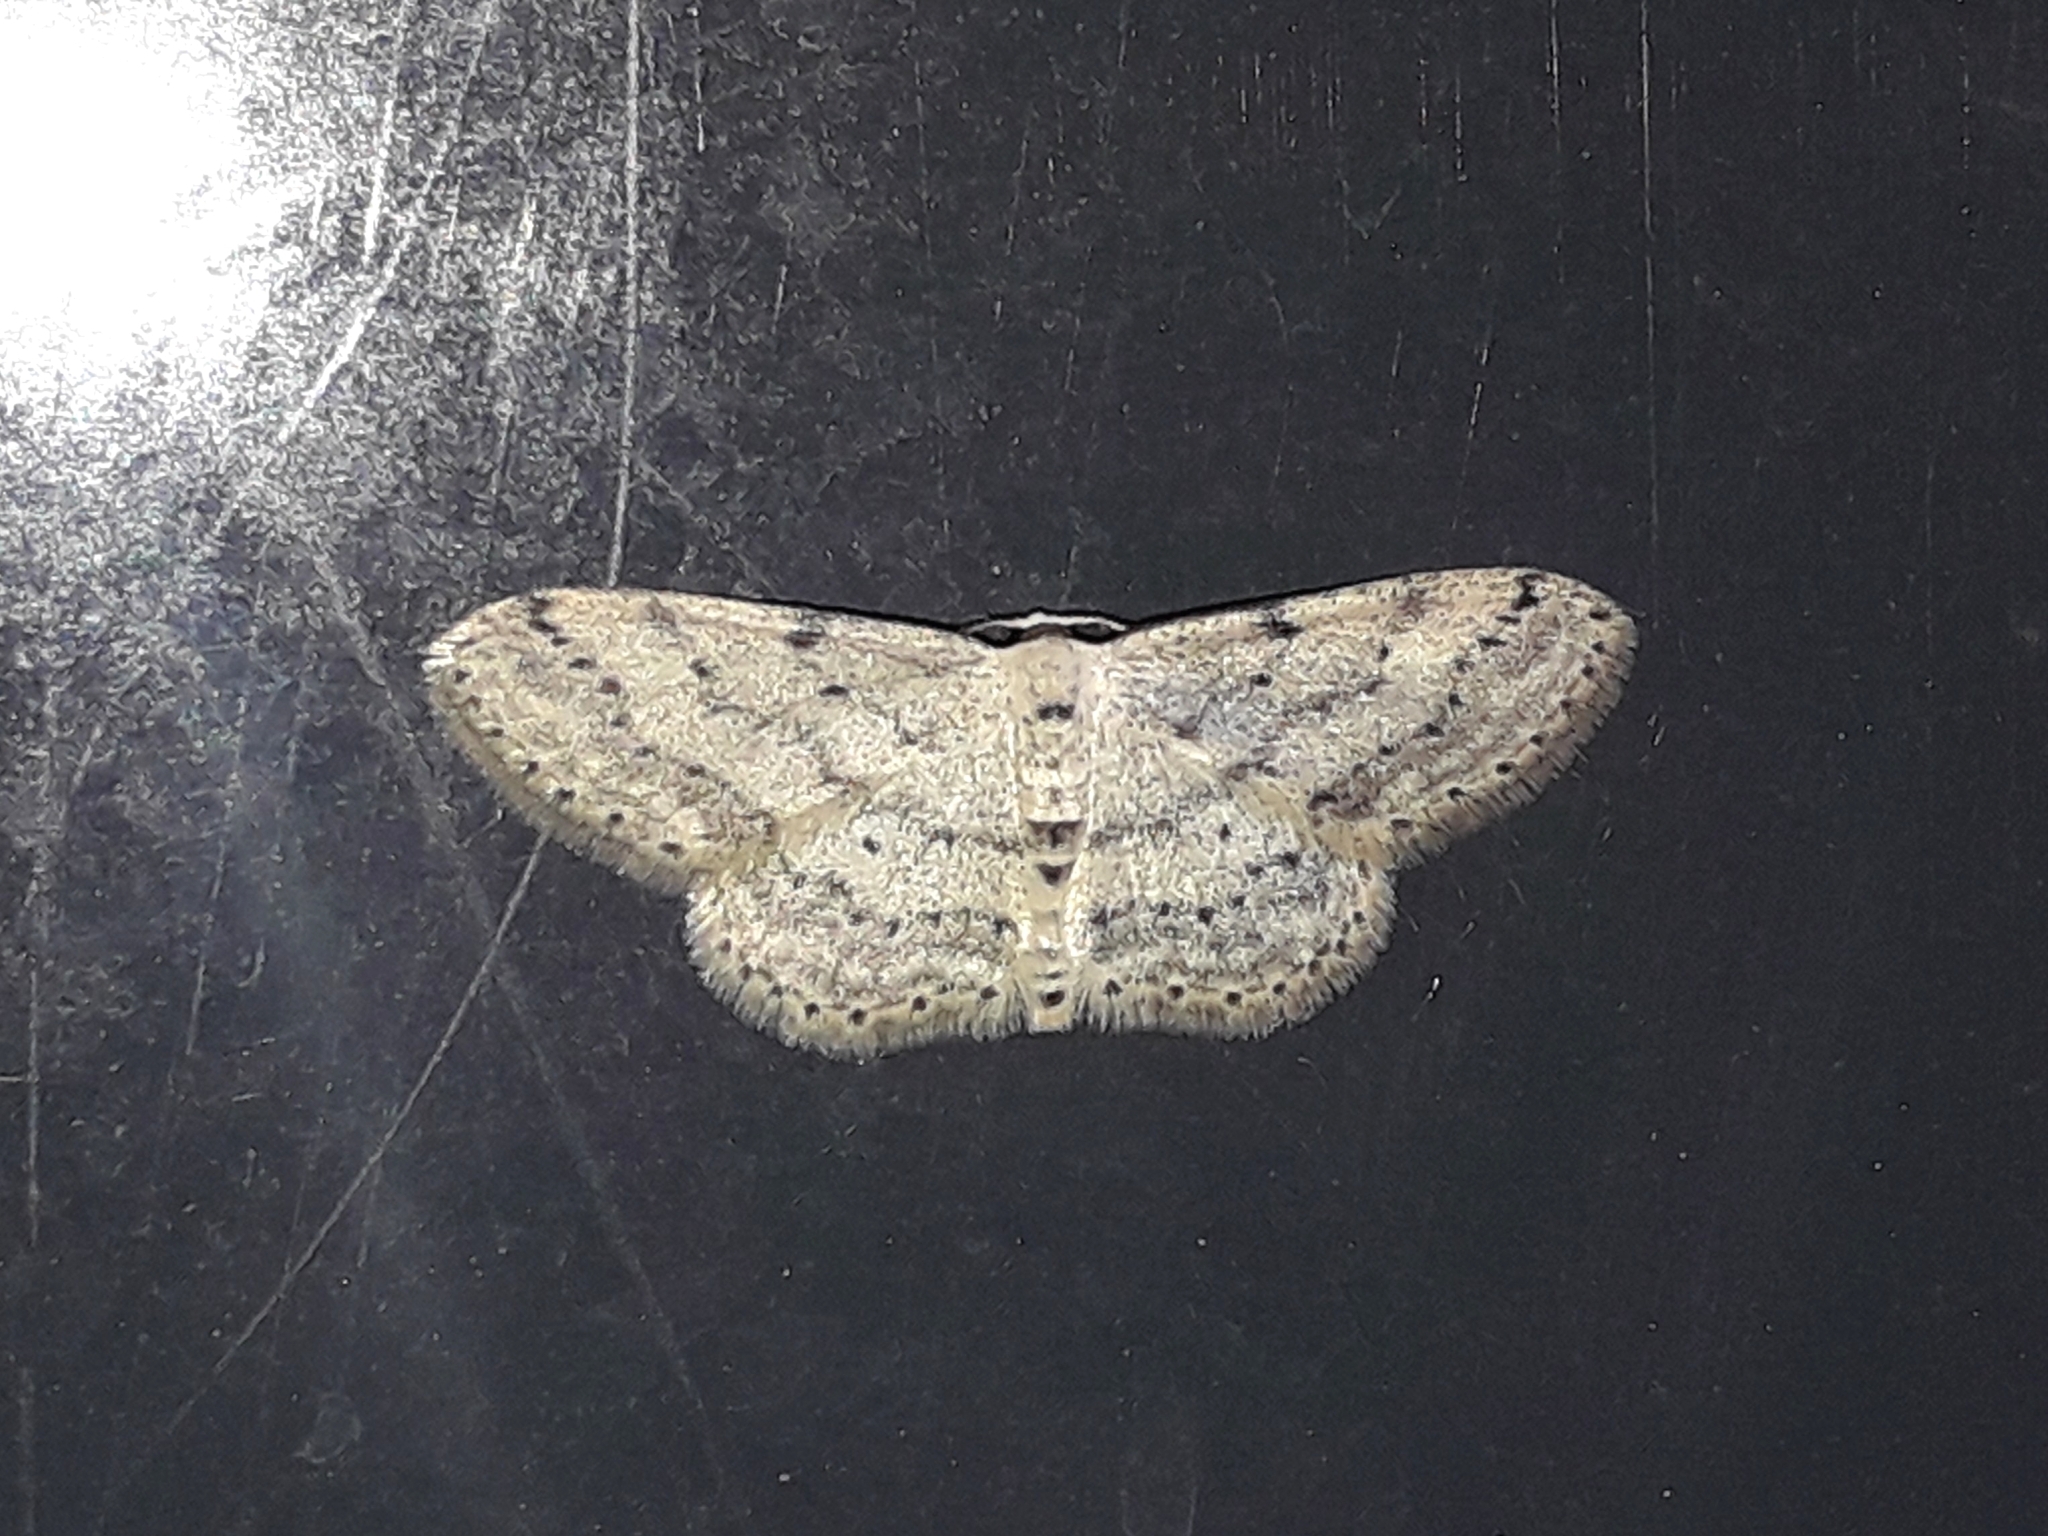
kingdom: Animalia
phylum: Arthropoda
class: Insecta
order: Lepidoptera
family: Geometridae
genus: Idaea
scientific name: Idaea seriata
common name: Small dusty wave
